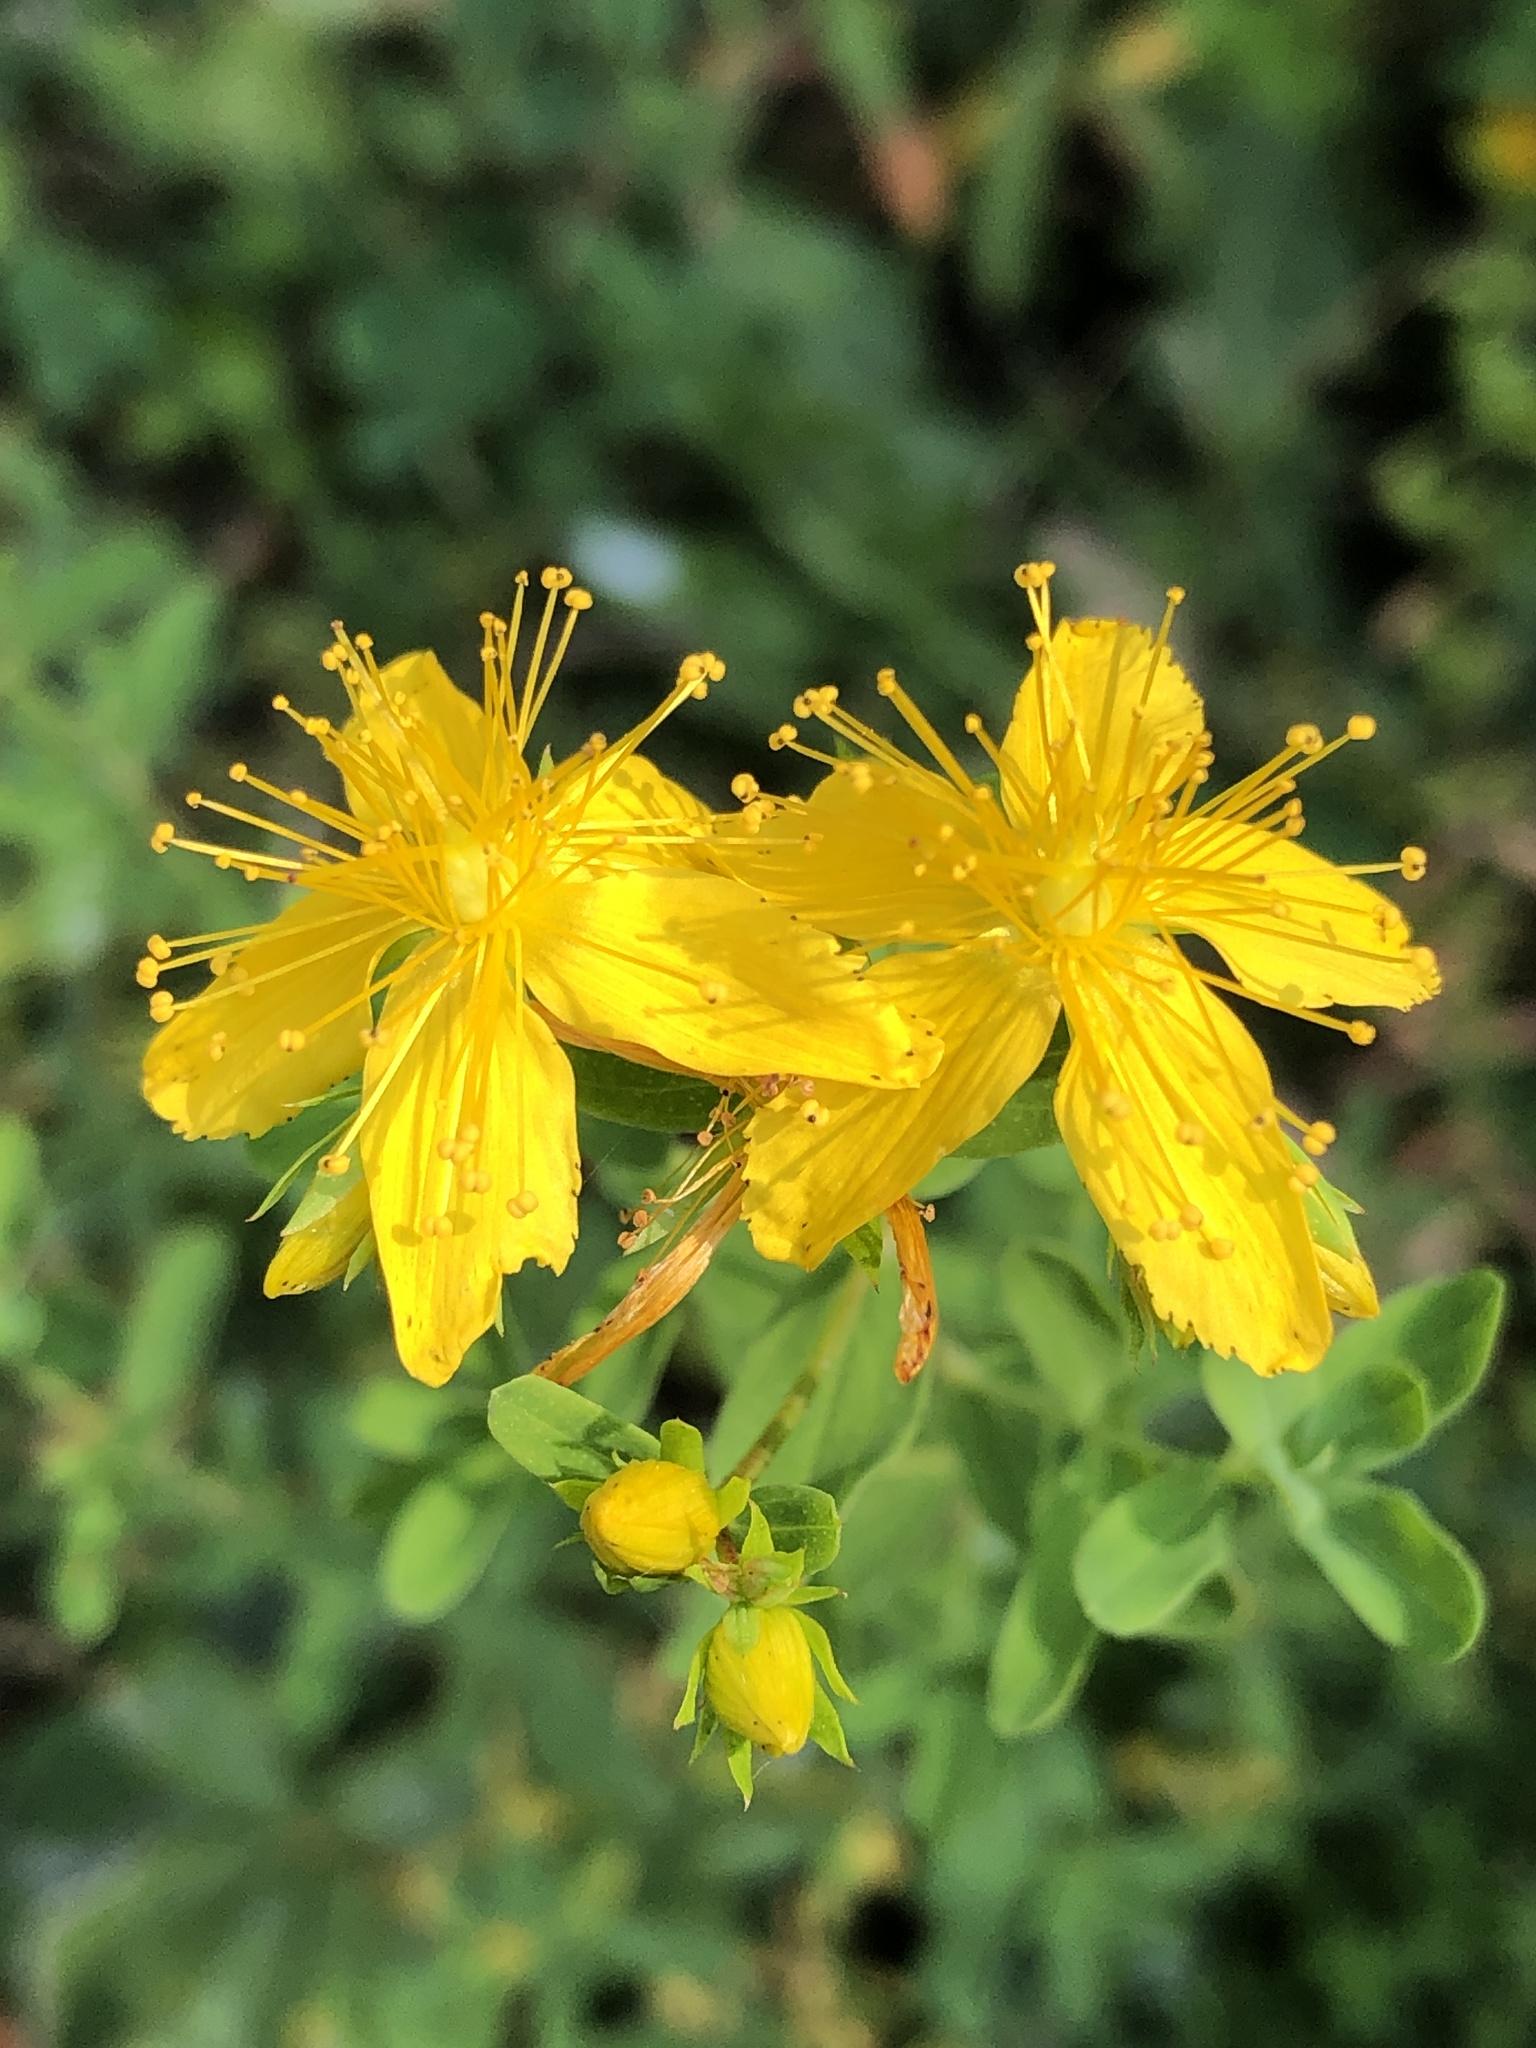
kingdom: Plantae
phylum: Tracheophyta
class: Magnoliopsida
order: Malpighiales
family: Hypericaceae
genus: Hypericum
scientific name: Hypericum perforatum
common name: Common st. johnswort
